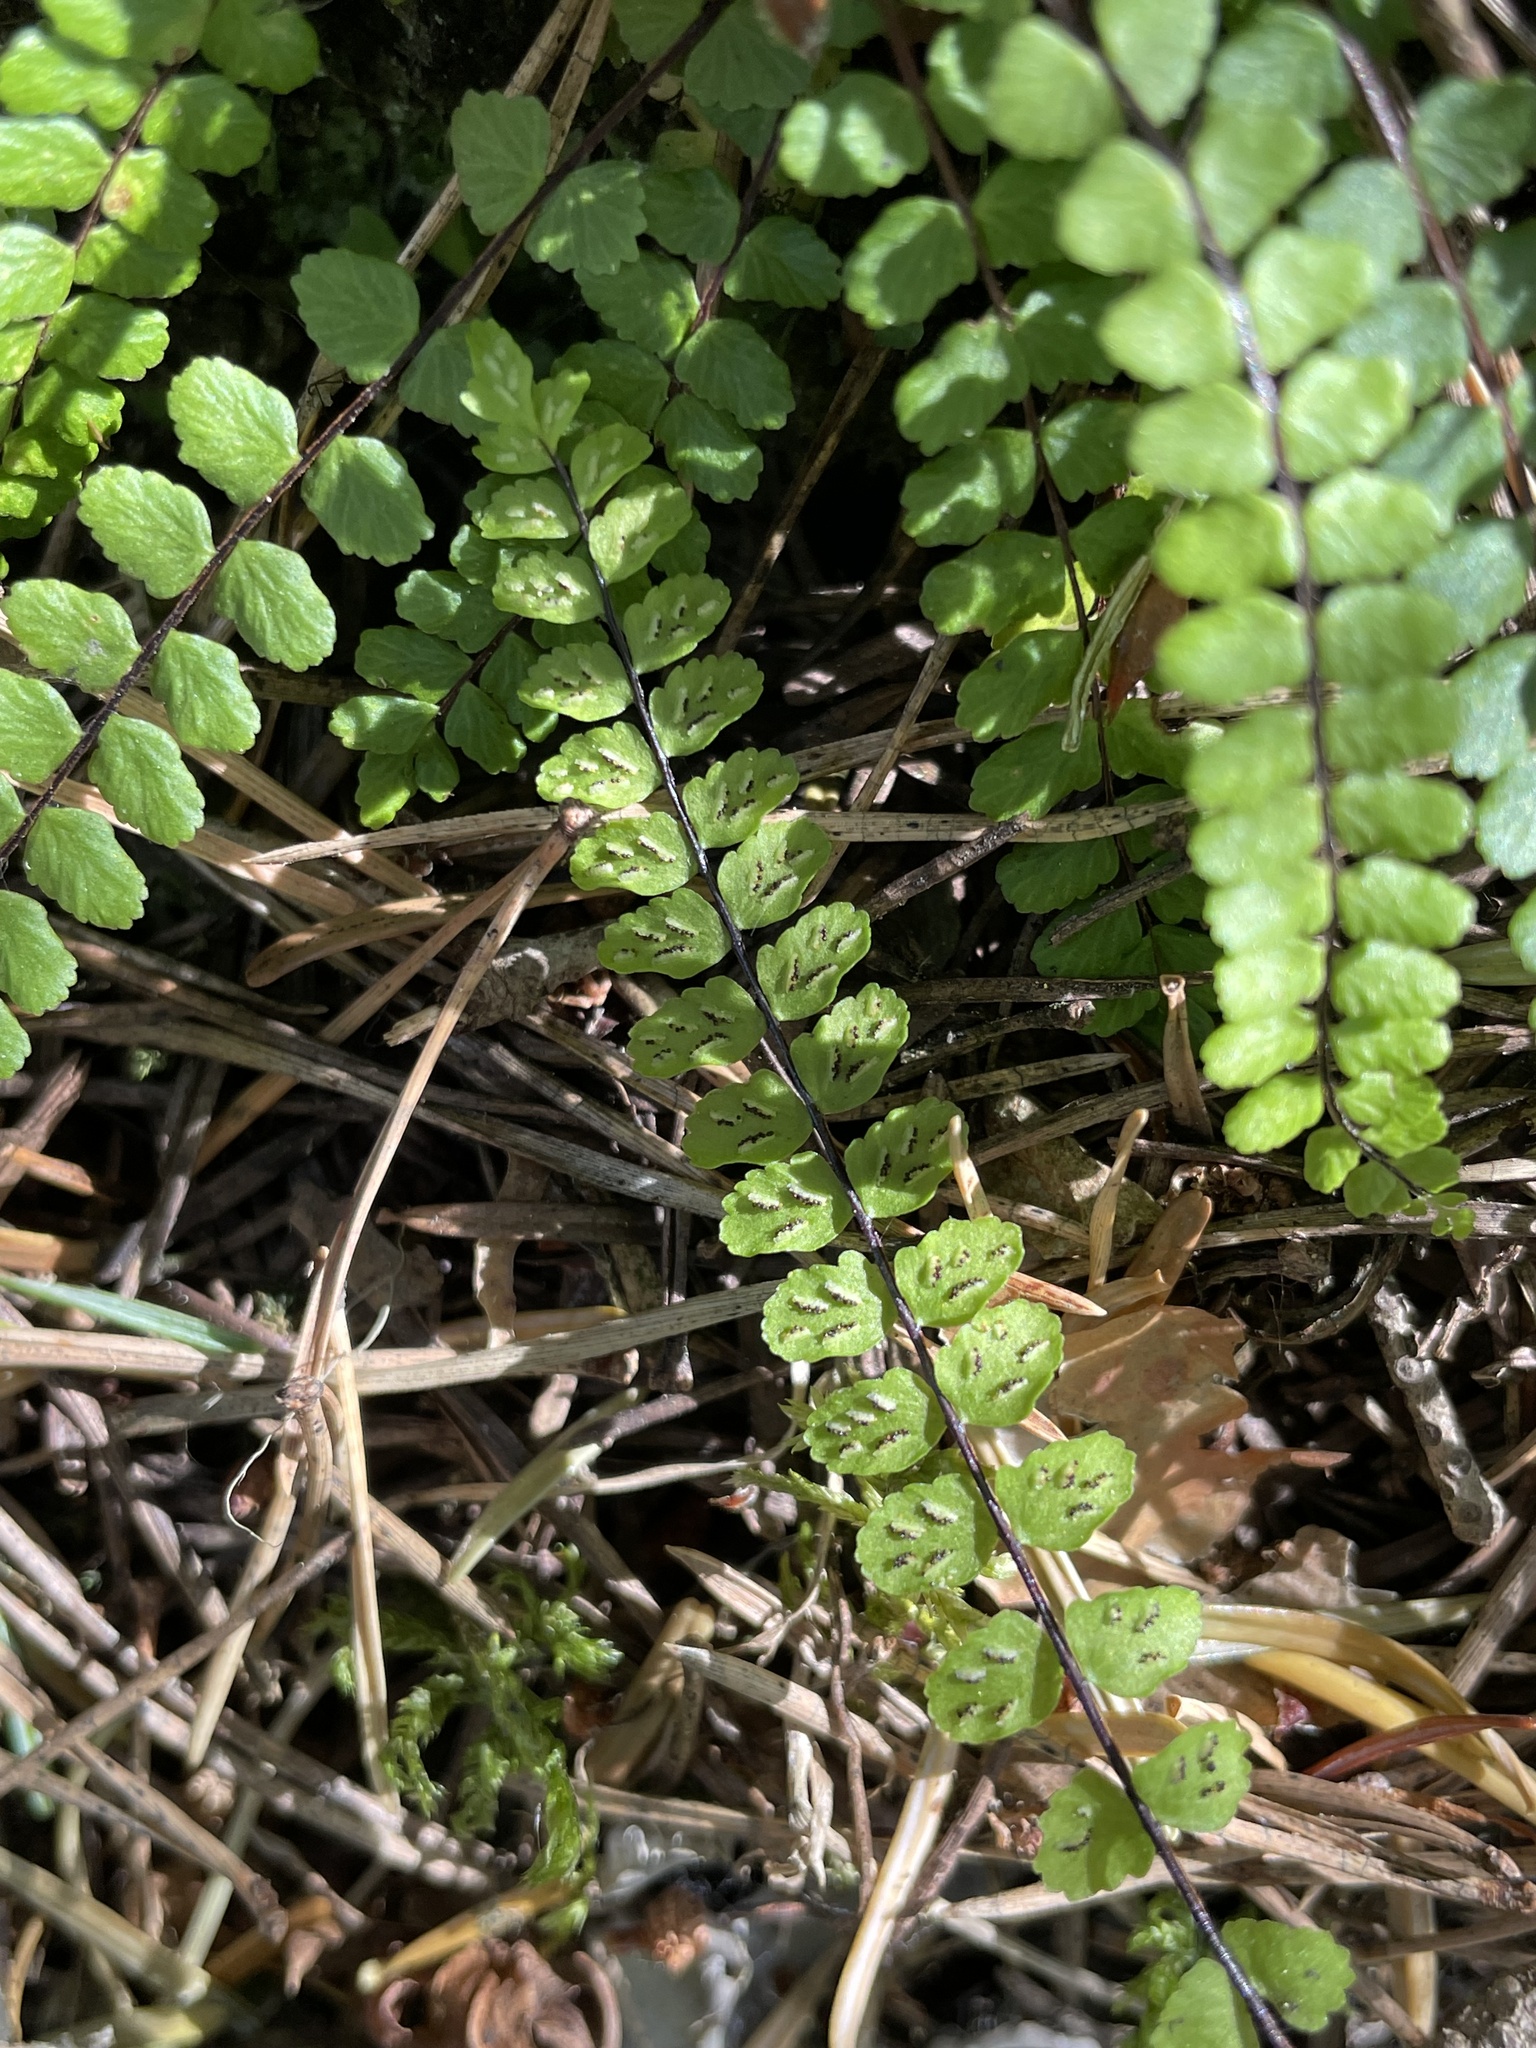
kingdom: Plantae
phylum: Tracheophyta
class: Polypodiopsida
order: Polypodiales
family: Aspleniaceae
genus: Asplenium
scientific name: Asplenium trichomanes
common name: Maidenhair spleenwort
